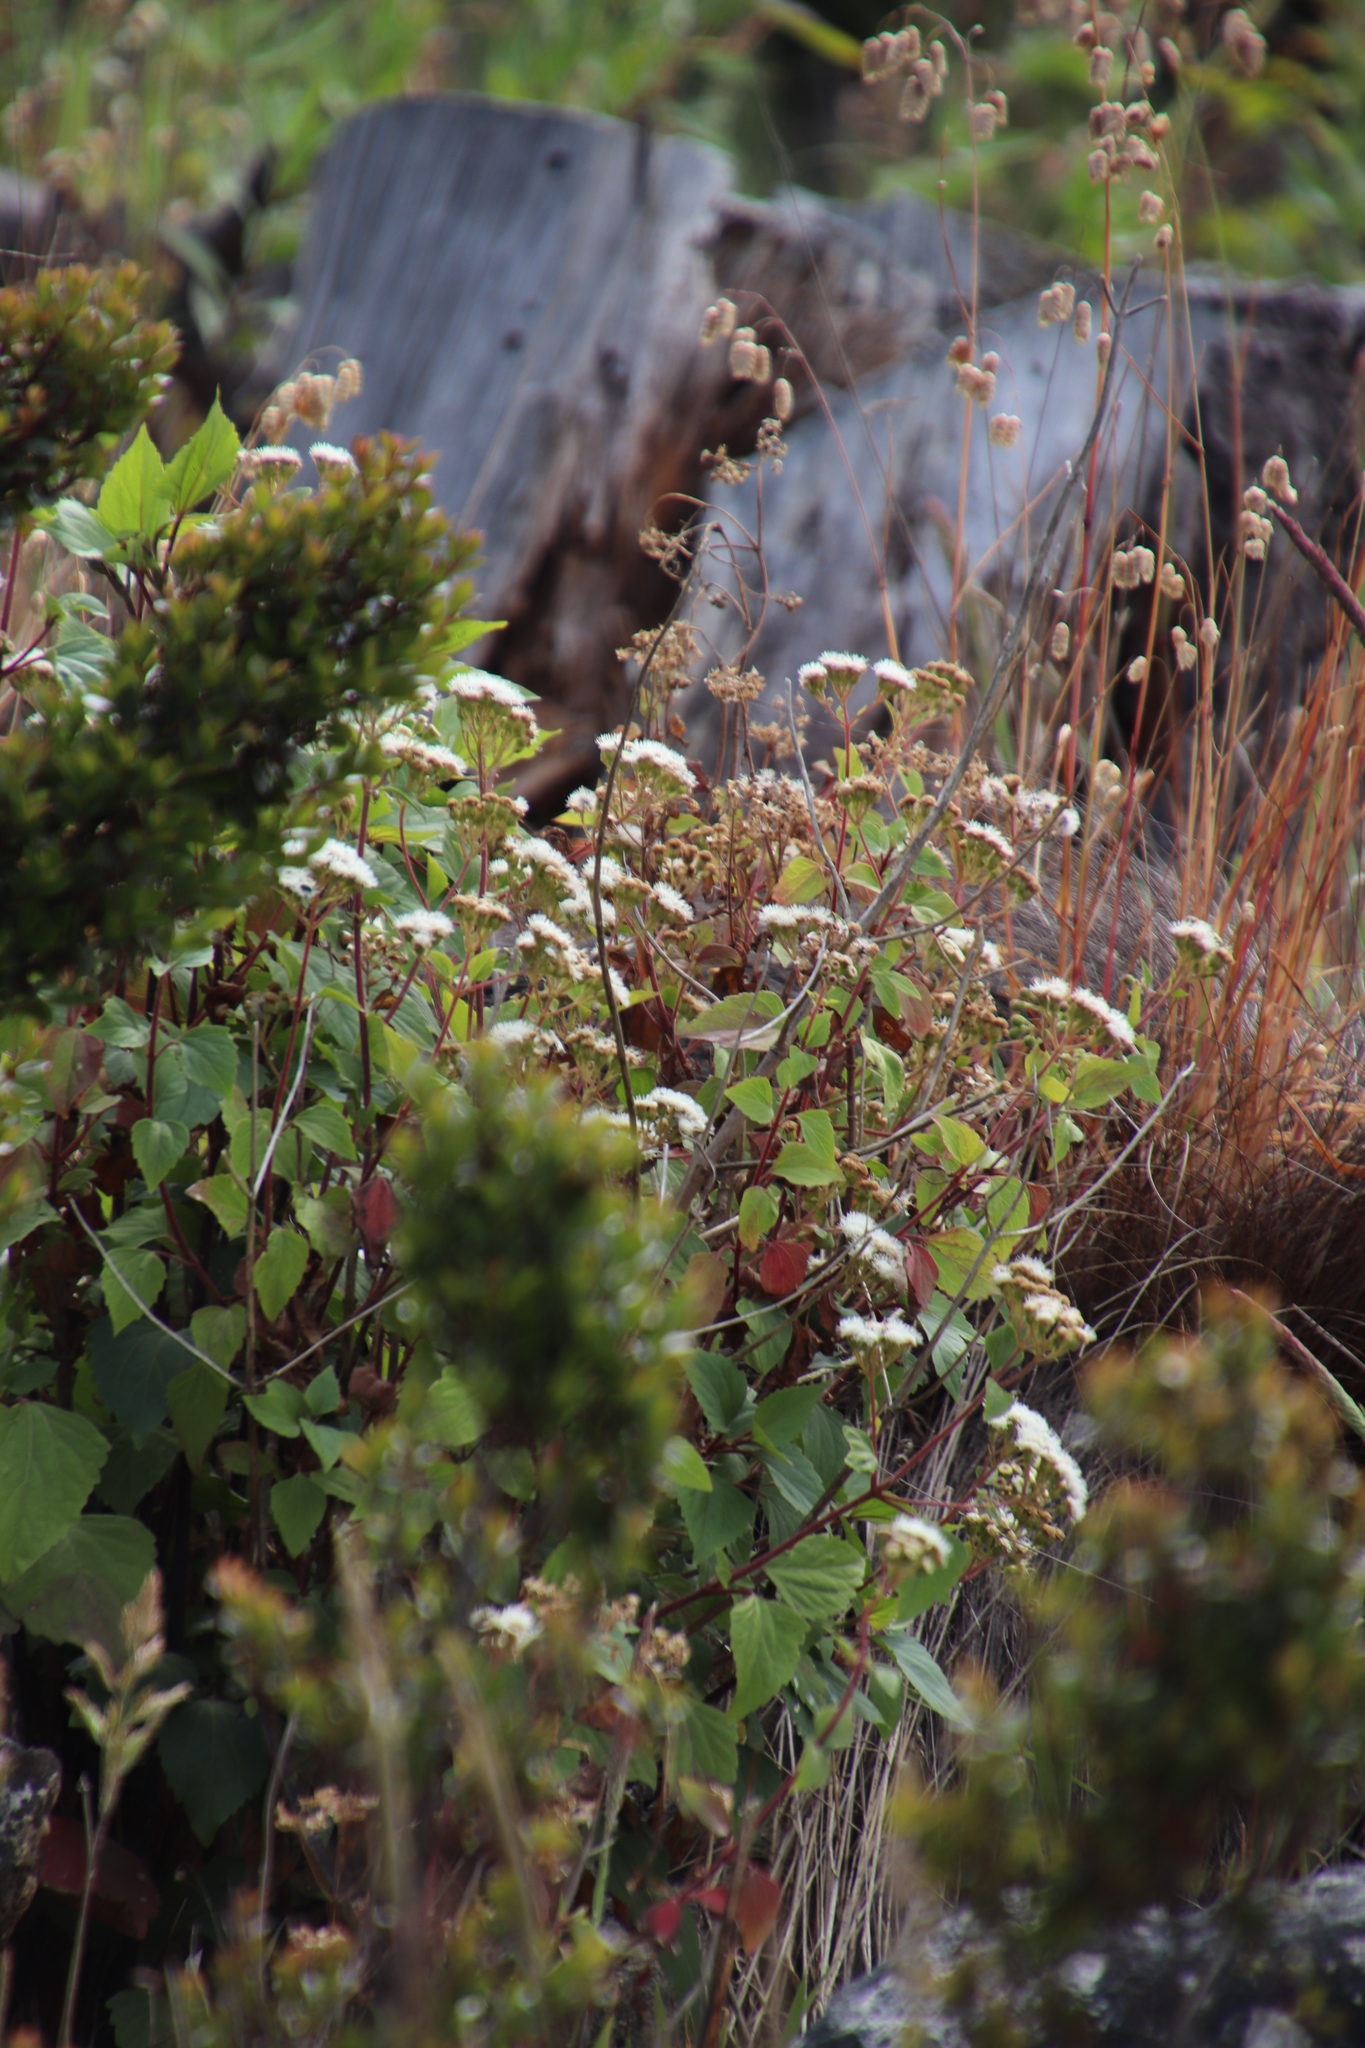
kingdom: Plantae
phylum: Tracheophyta
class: Magnoliopsida
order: Asterales
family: Asteraceae
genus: Ageratina
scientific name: Ageratina adenophora
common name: Sticky snakeroot
